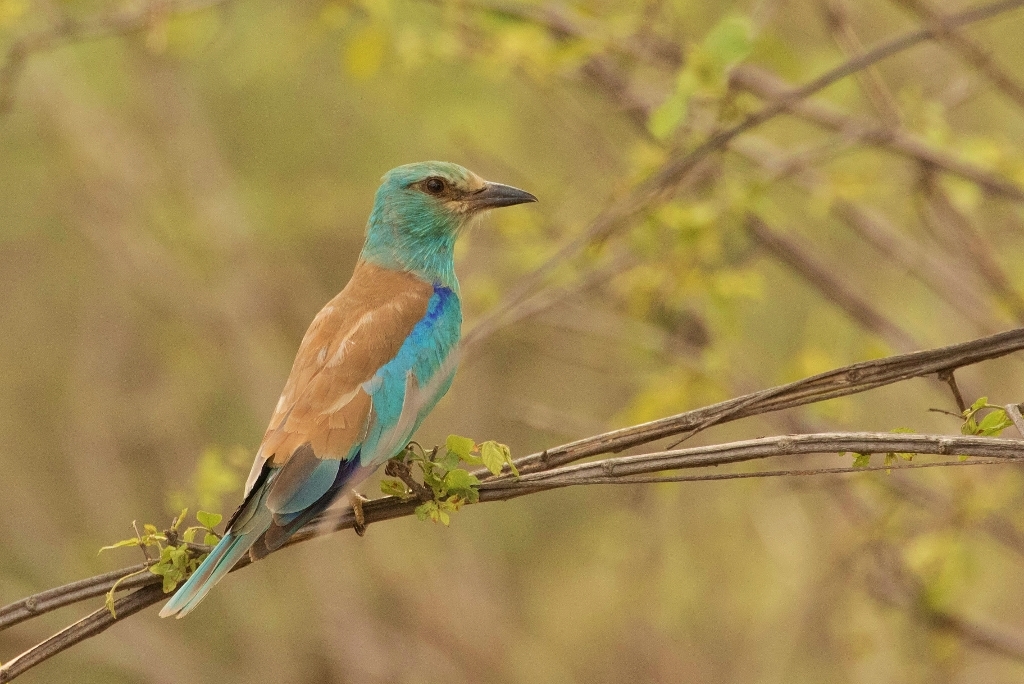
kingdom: Animalia
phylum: Chordata
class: Aves
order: Coraciiformes
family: Coraciidae
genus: Coracias
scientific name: Coracias garrulus
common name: European roller
